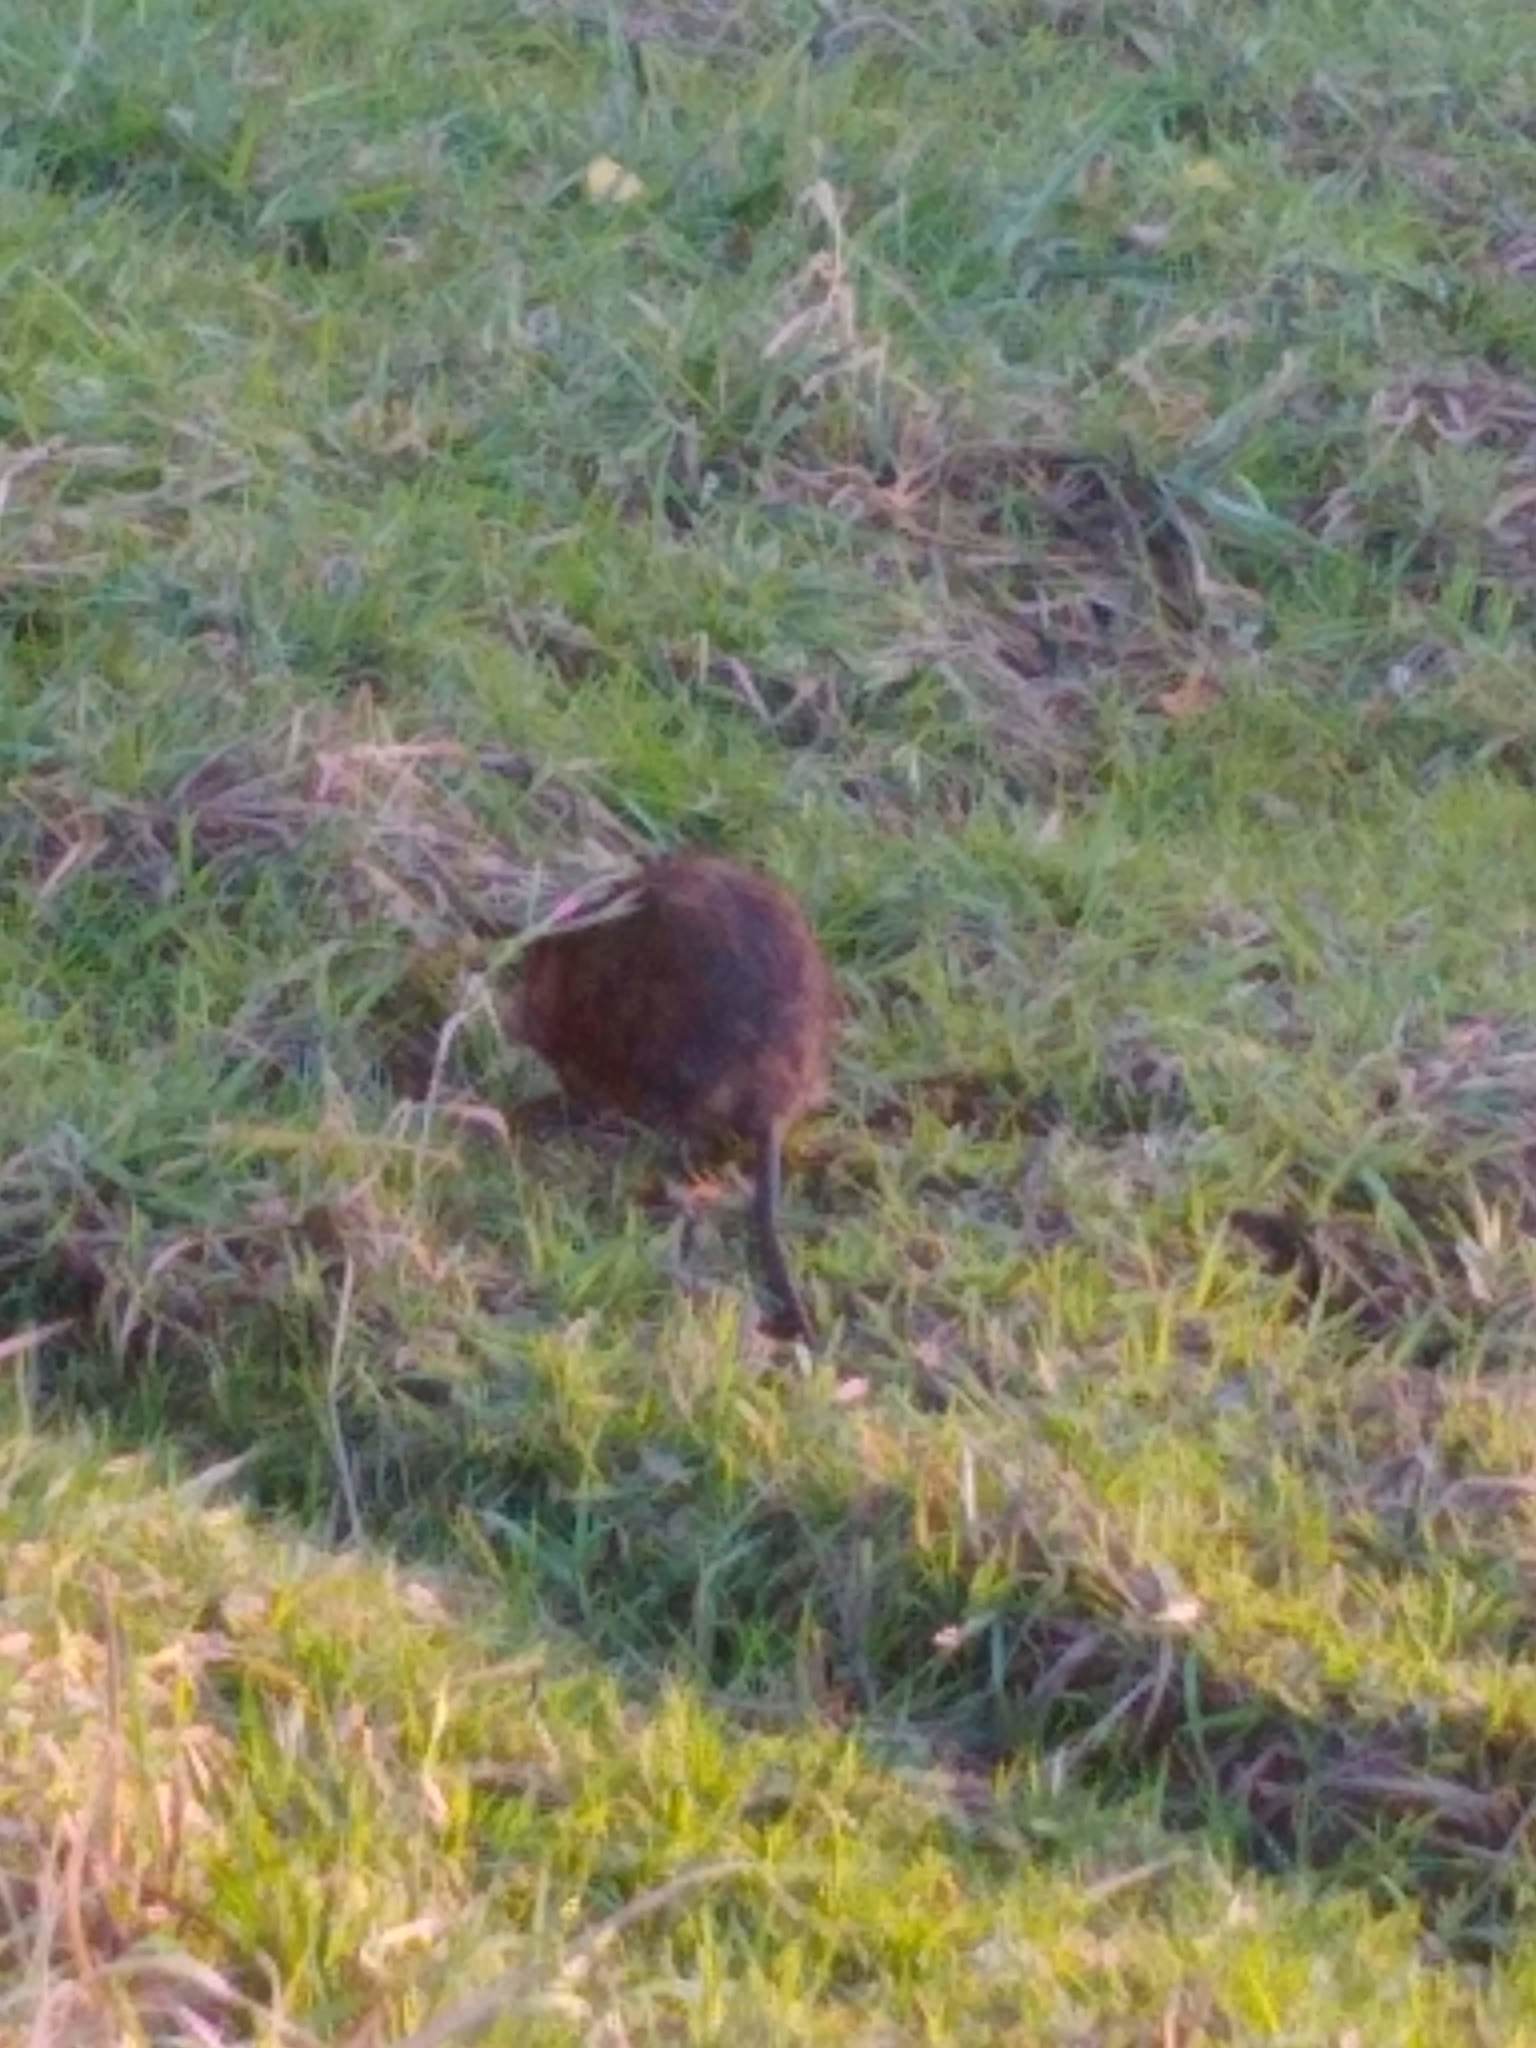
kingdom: Animalia
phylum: Chordata
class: Mammalia
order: Rodentia
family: Cricetidae
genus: Ondatra
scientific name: Ondatra zibethicus
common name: Muskrat
